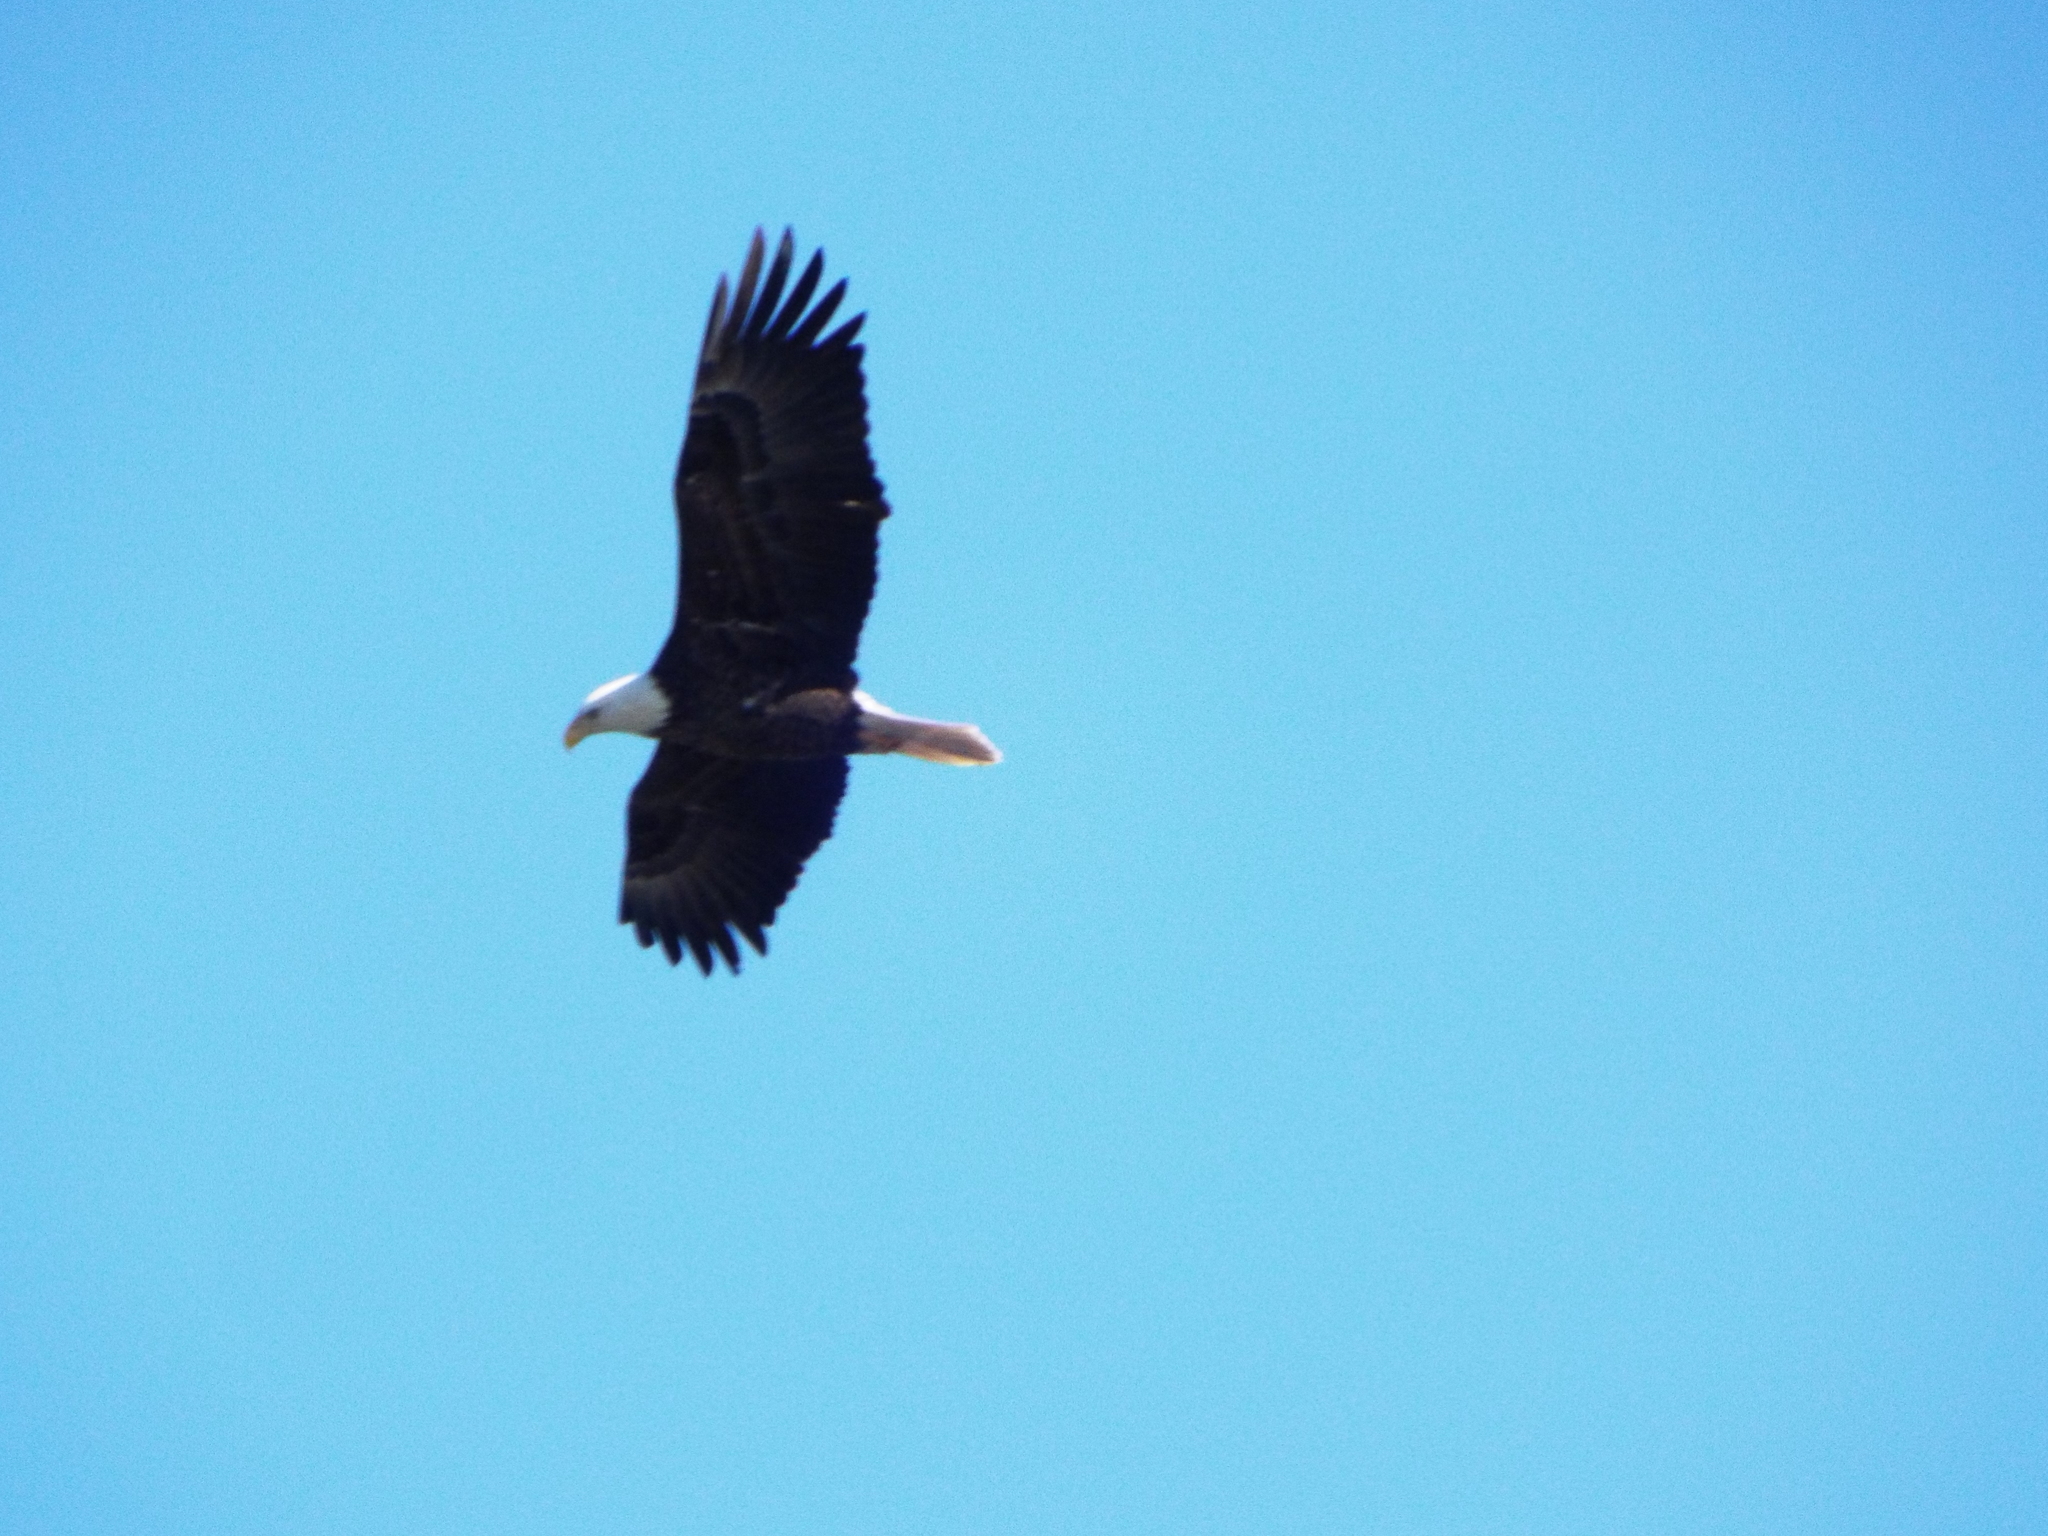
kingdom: Animalia
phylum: Chordata
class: Aves
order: Accipitriformes
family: Accipitridae
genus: Haliaeetus
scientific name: Haliaeetus leucocephalus
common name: Bald eagle
